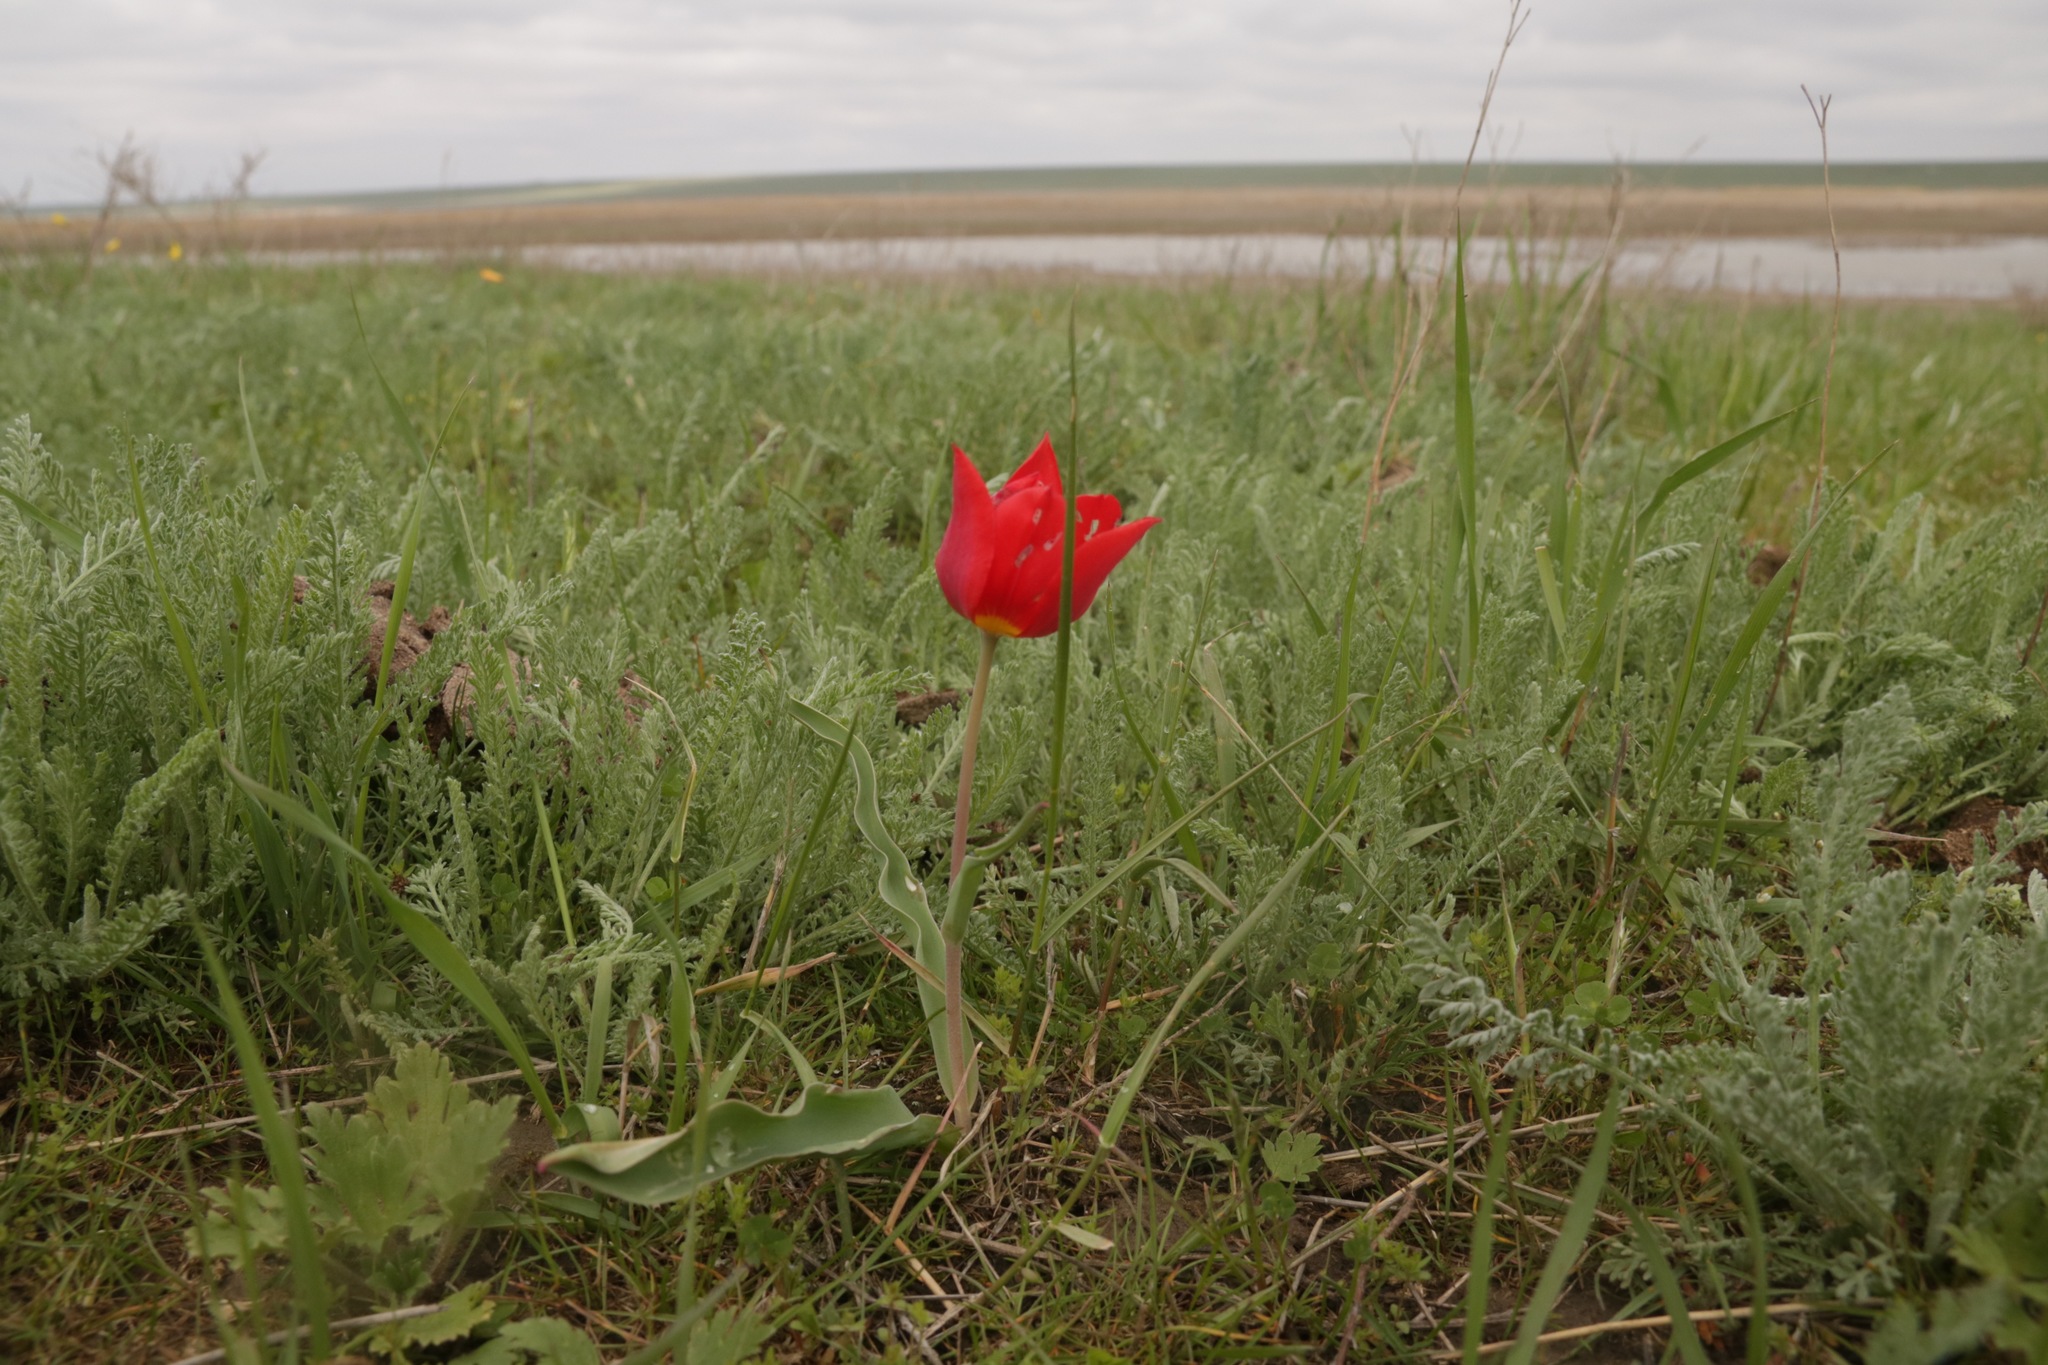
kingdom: Plantae
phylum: Tracheophyta
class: Liliopsida
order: Liliales
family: Liliaceae
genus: Tulipa
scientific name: Tulipa suaveolens
